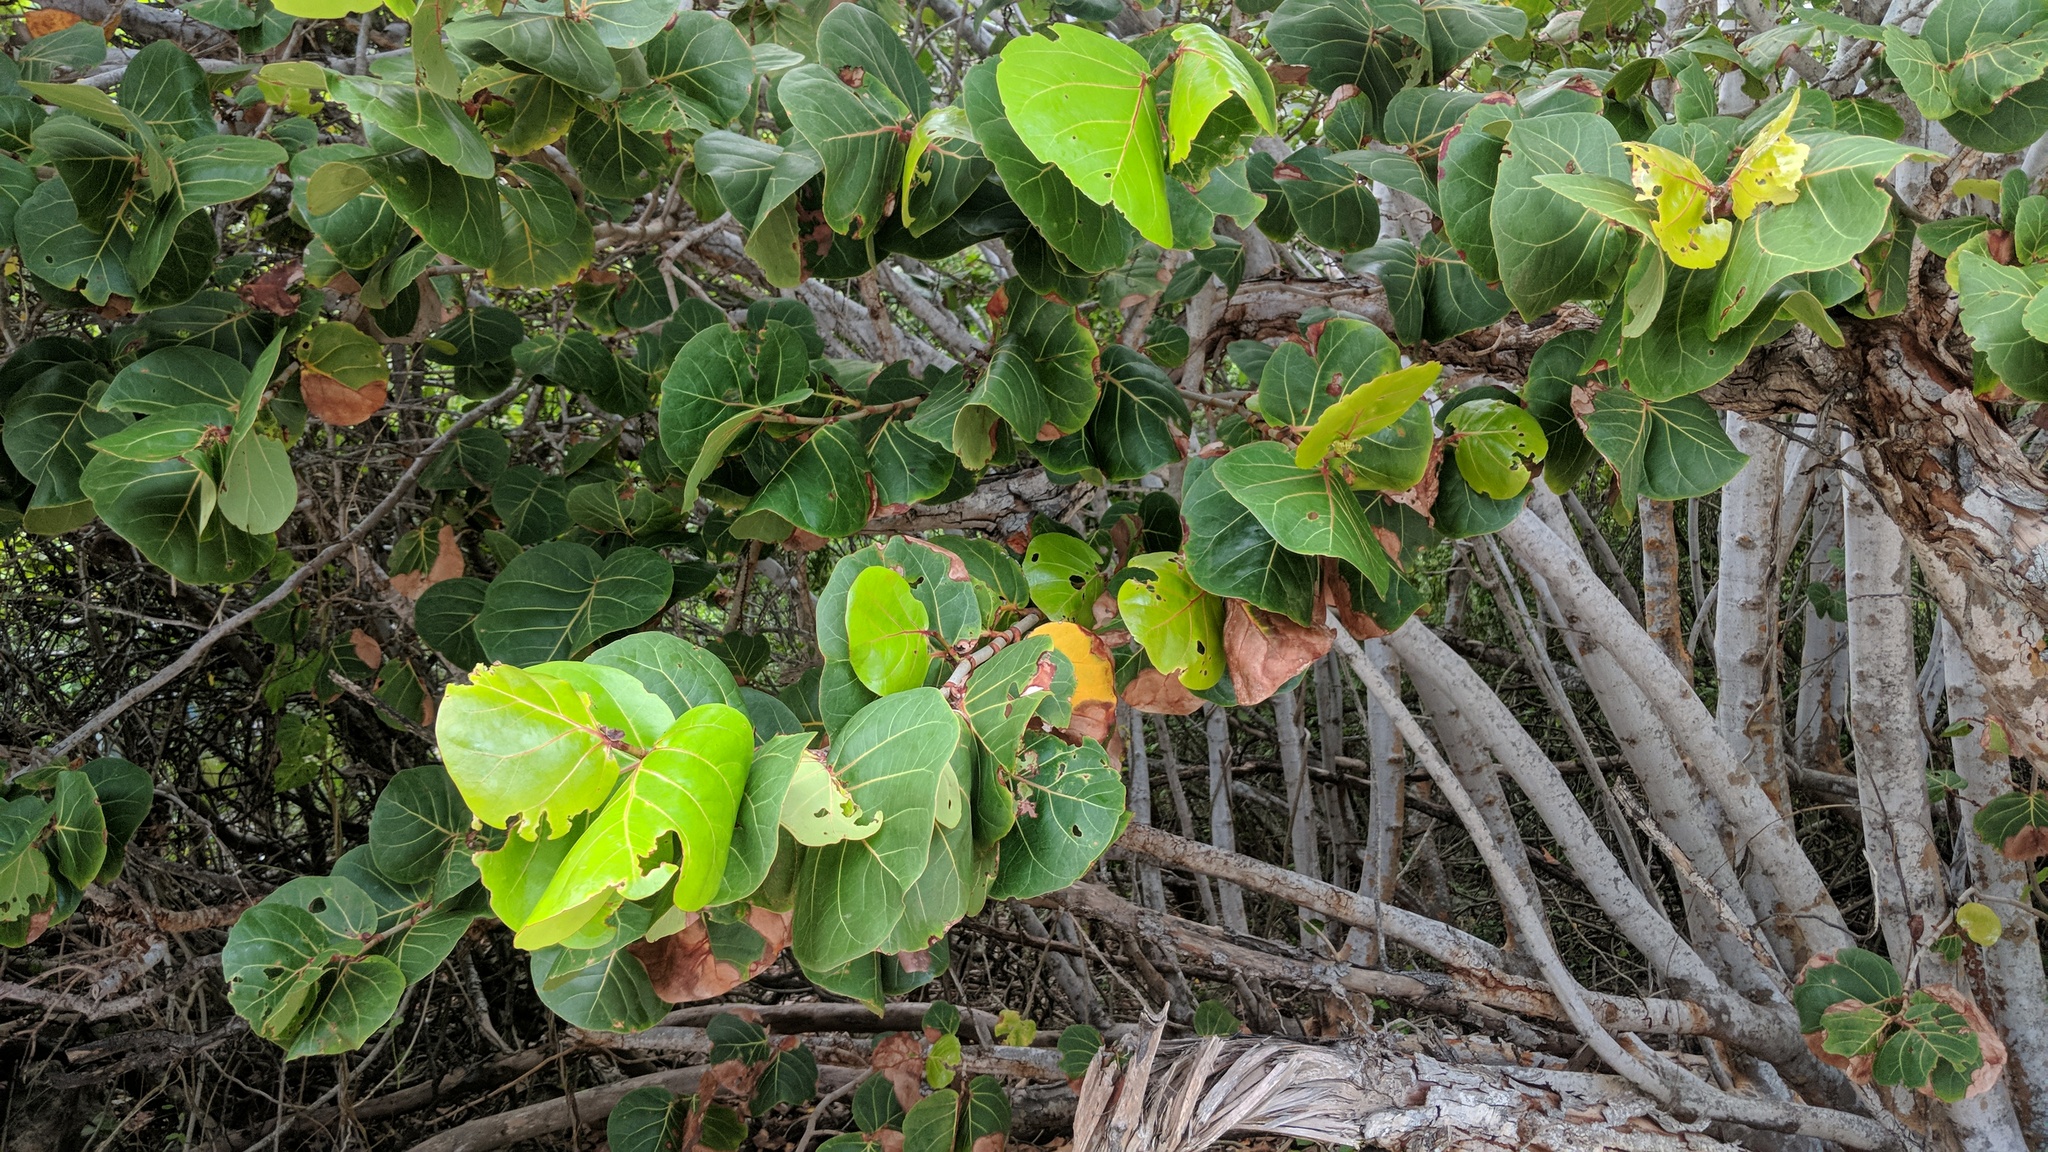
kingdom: Plantae
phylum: Tracheophyta
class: Magnoliopsida
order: Caryophyllales
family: Polygonaceae
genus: Coccoloba
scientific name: Coccoloba uvifera
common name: Seagrape
